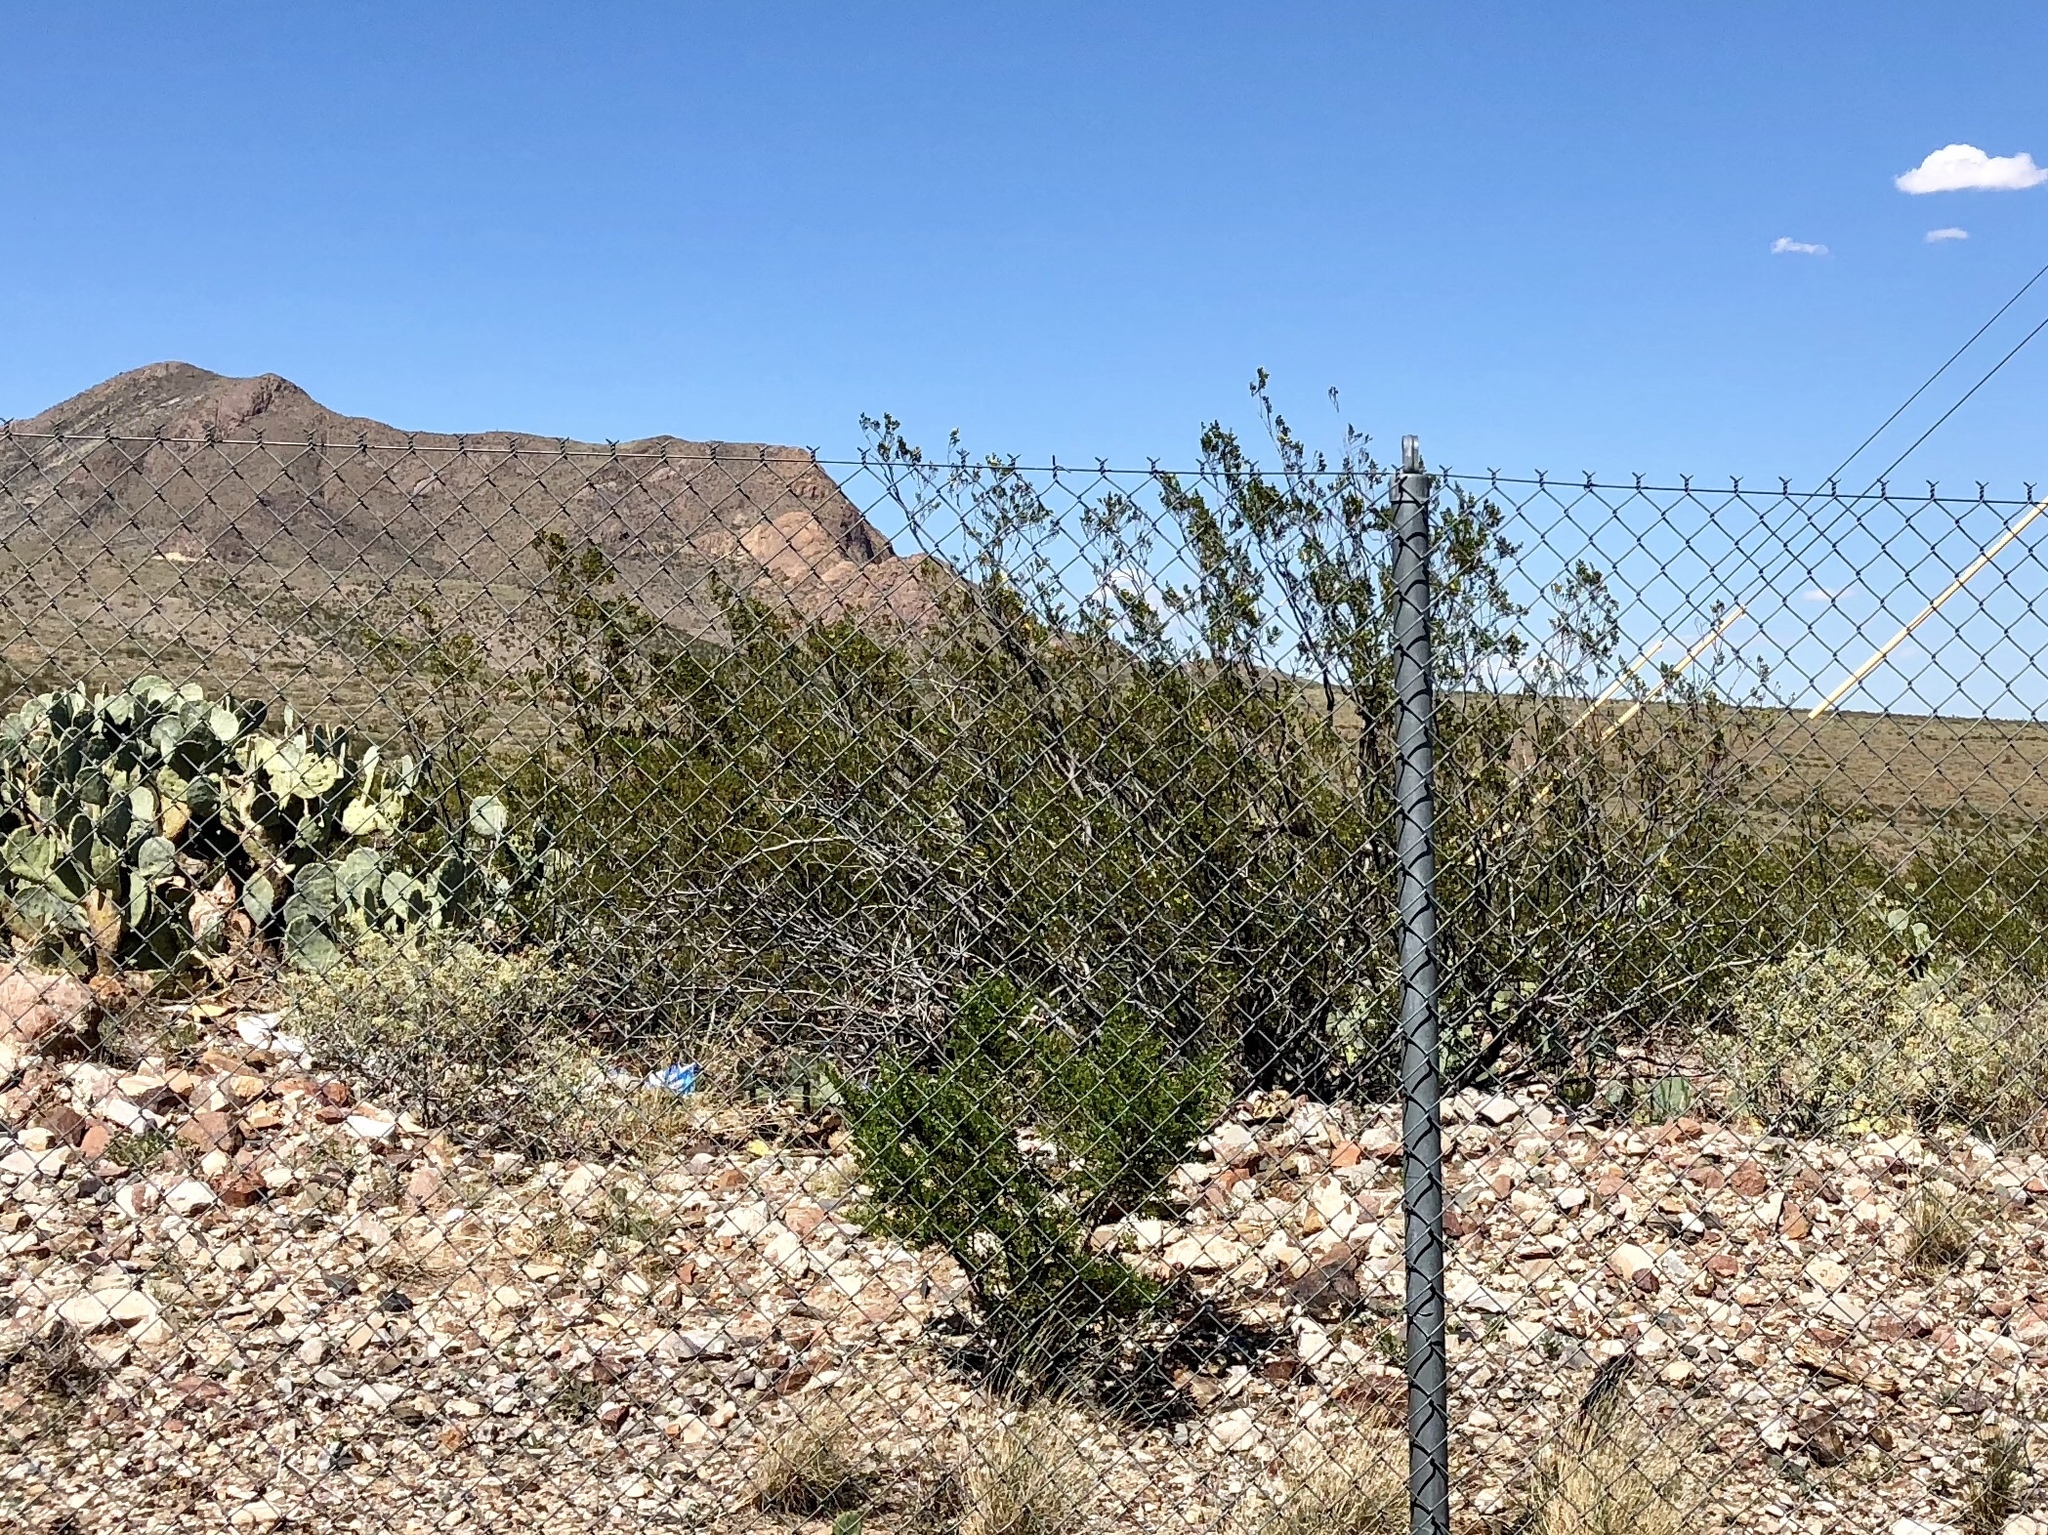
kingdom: Plantae
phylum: Tracheophyta
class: Magnoliopsida
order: Zygophyllales
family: Zygophyllaceae
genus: Larrea
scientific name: Larrea tridentata
